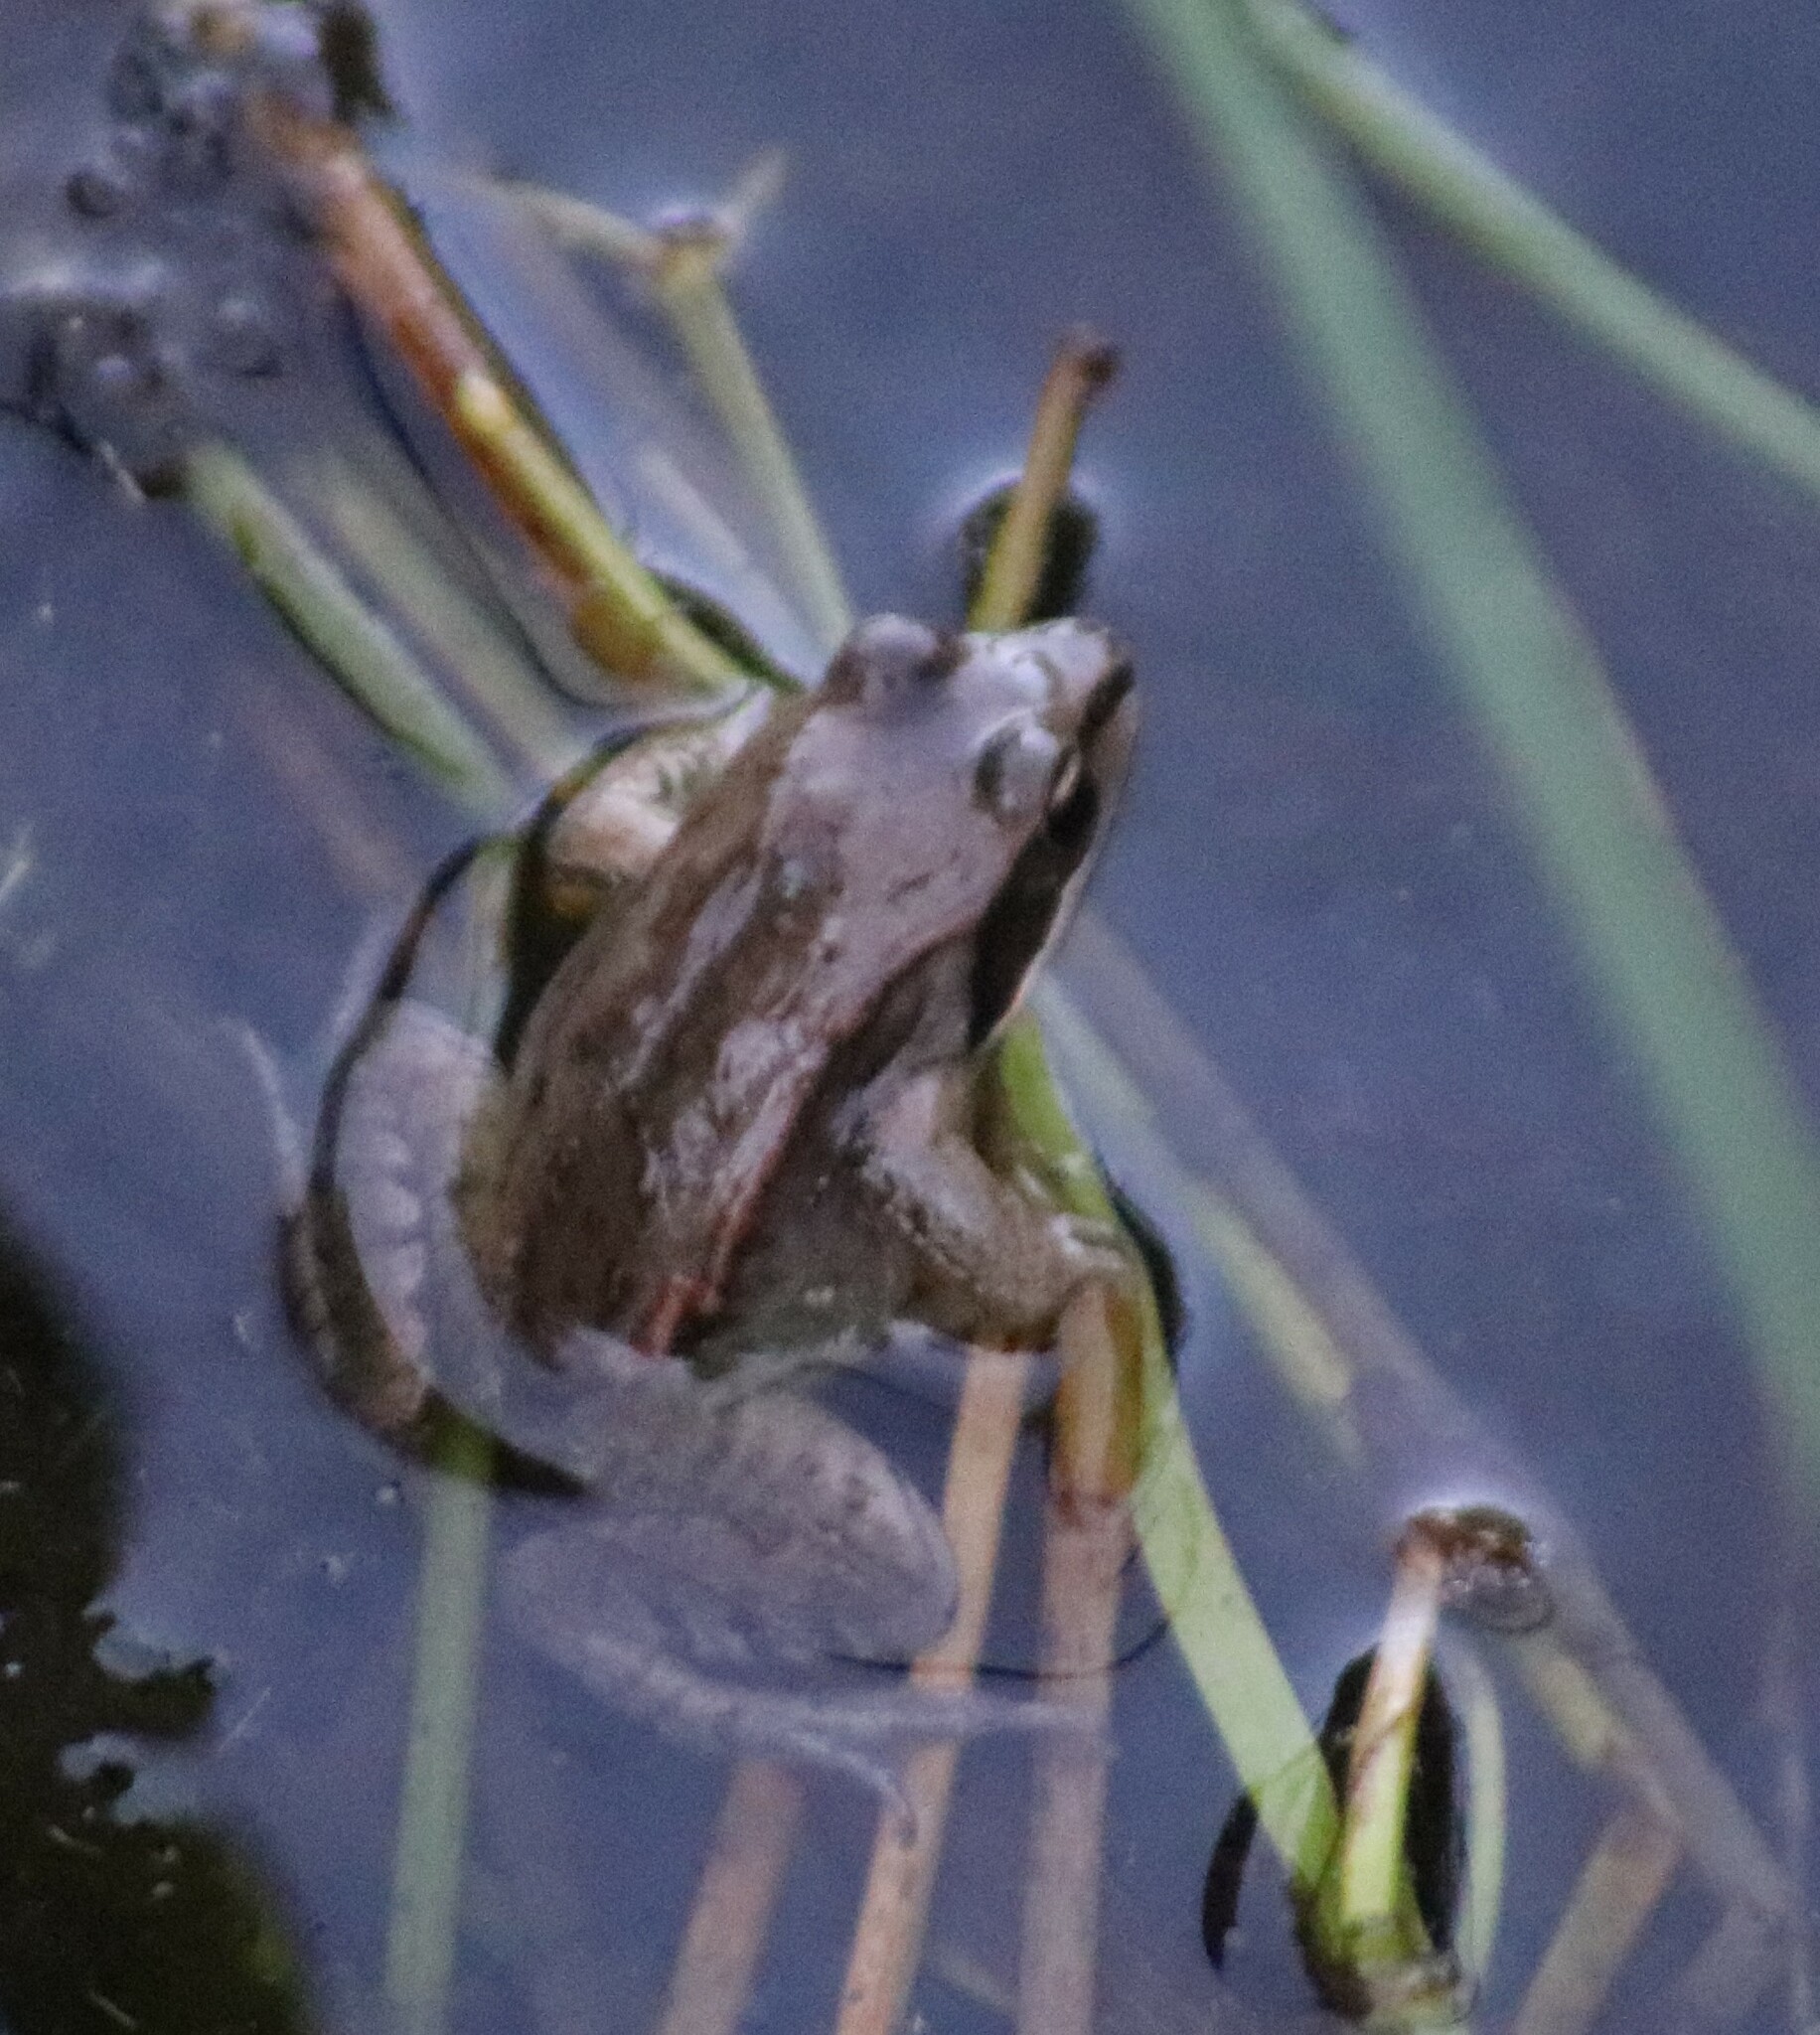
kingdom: Animalia
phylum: Chordata
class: Amphibia
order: Anura
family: Ranidae
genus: Lithobates
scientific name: Lithobates sylvaticus
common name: Wood frog
